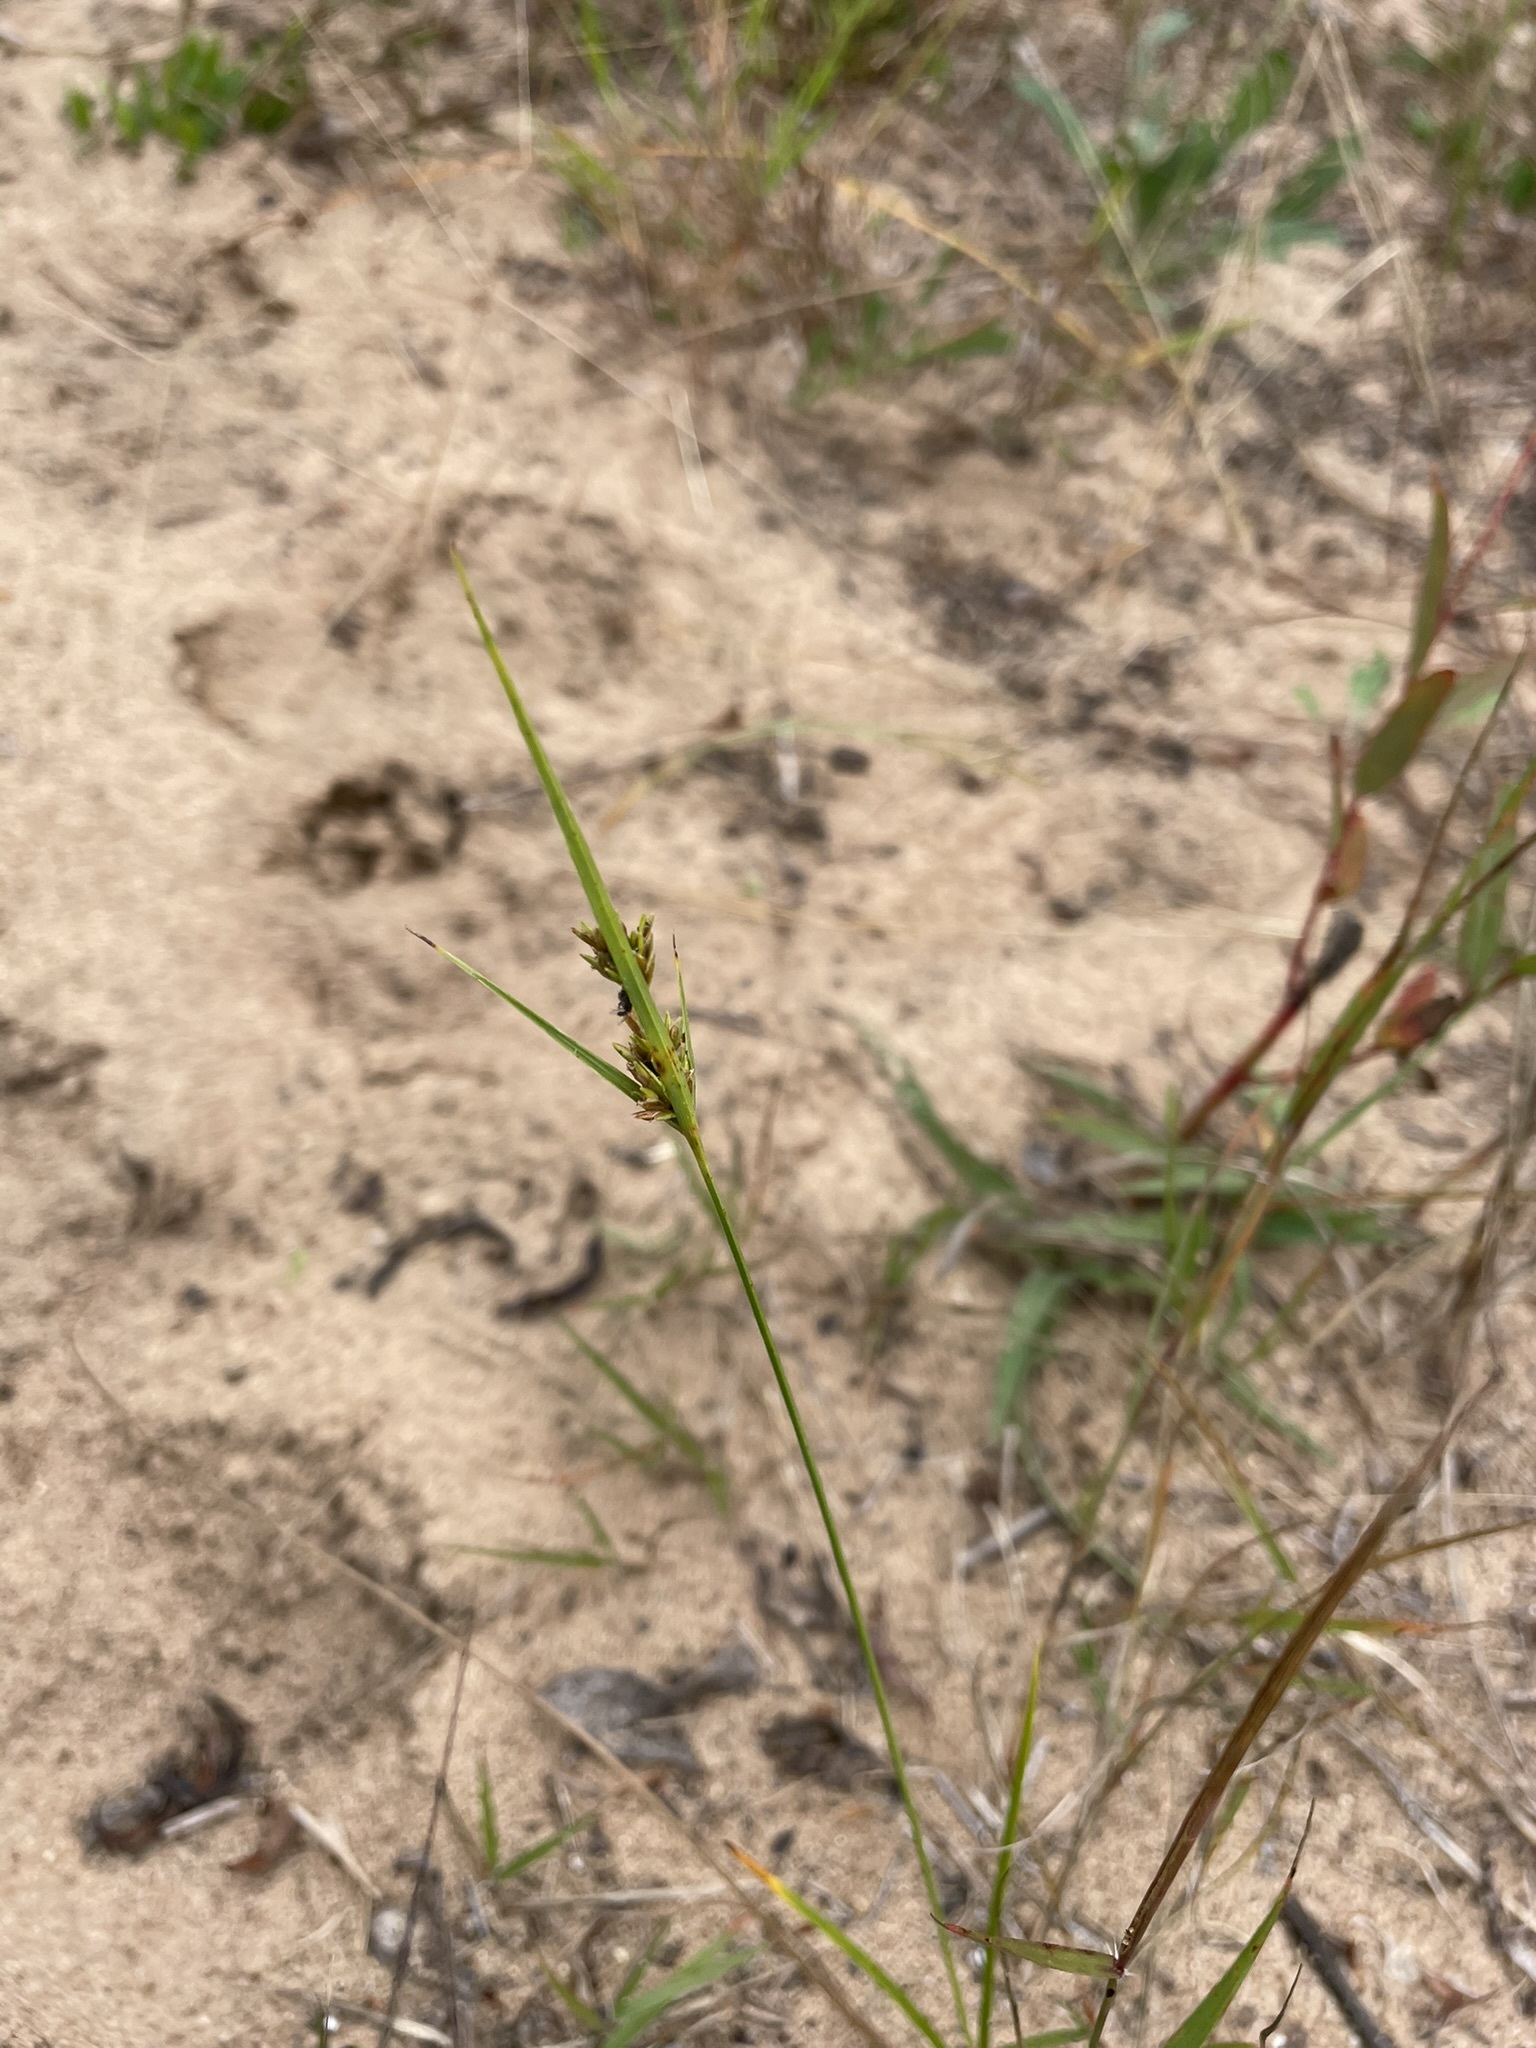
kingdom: Plantae
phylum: Tracheophyta
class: Liliopsida
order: Poales
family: Cyperaceae
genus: Cyperus
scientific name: Cyperus schweinitzii
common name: Schweinitz's cyperus
